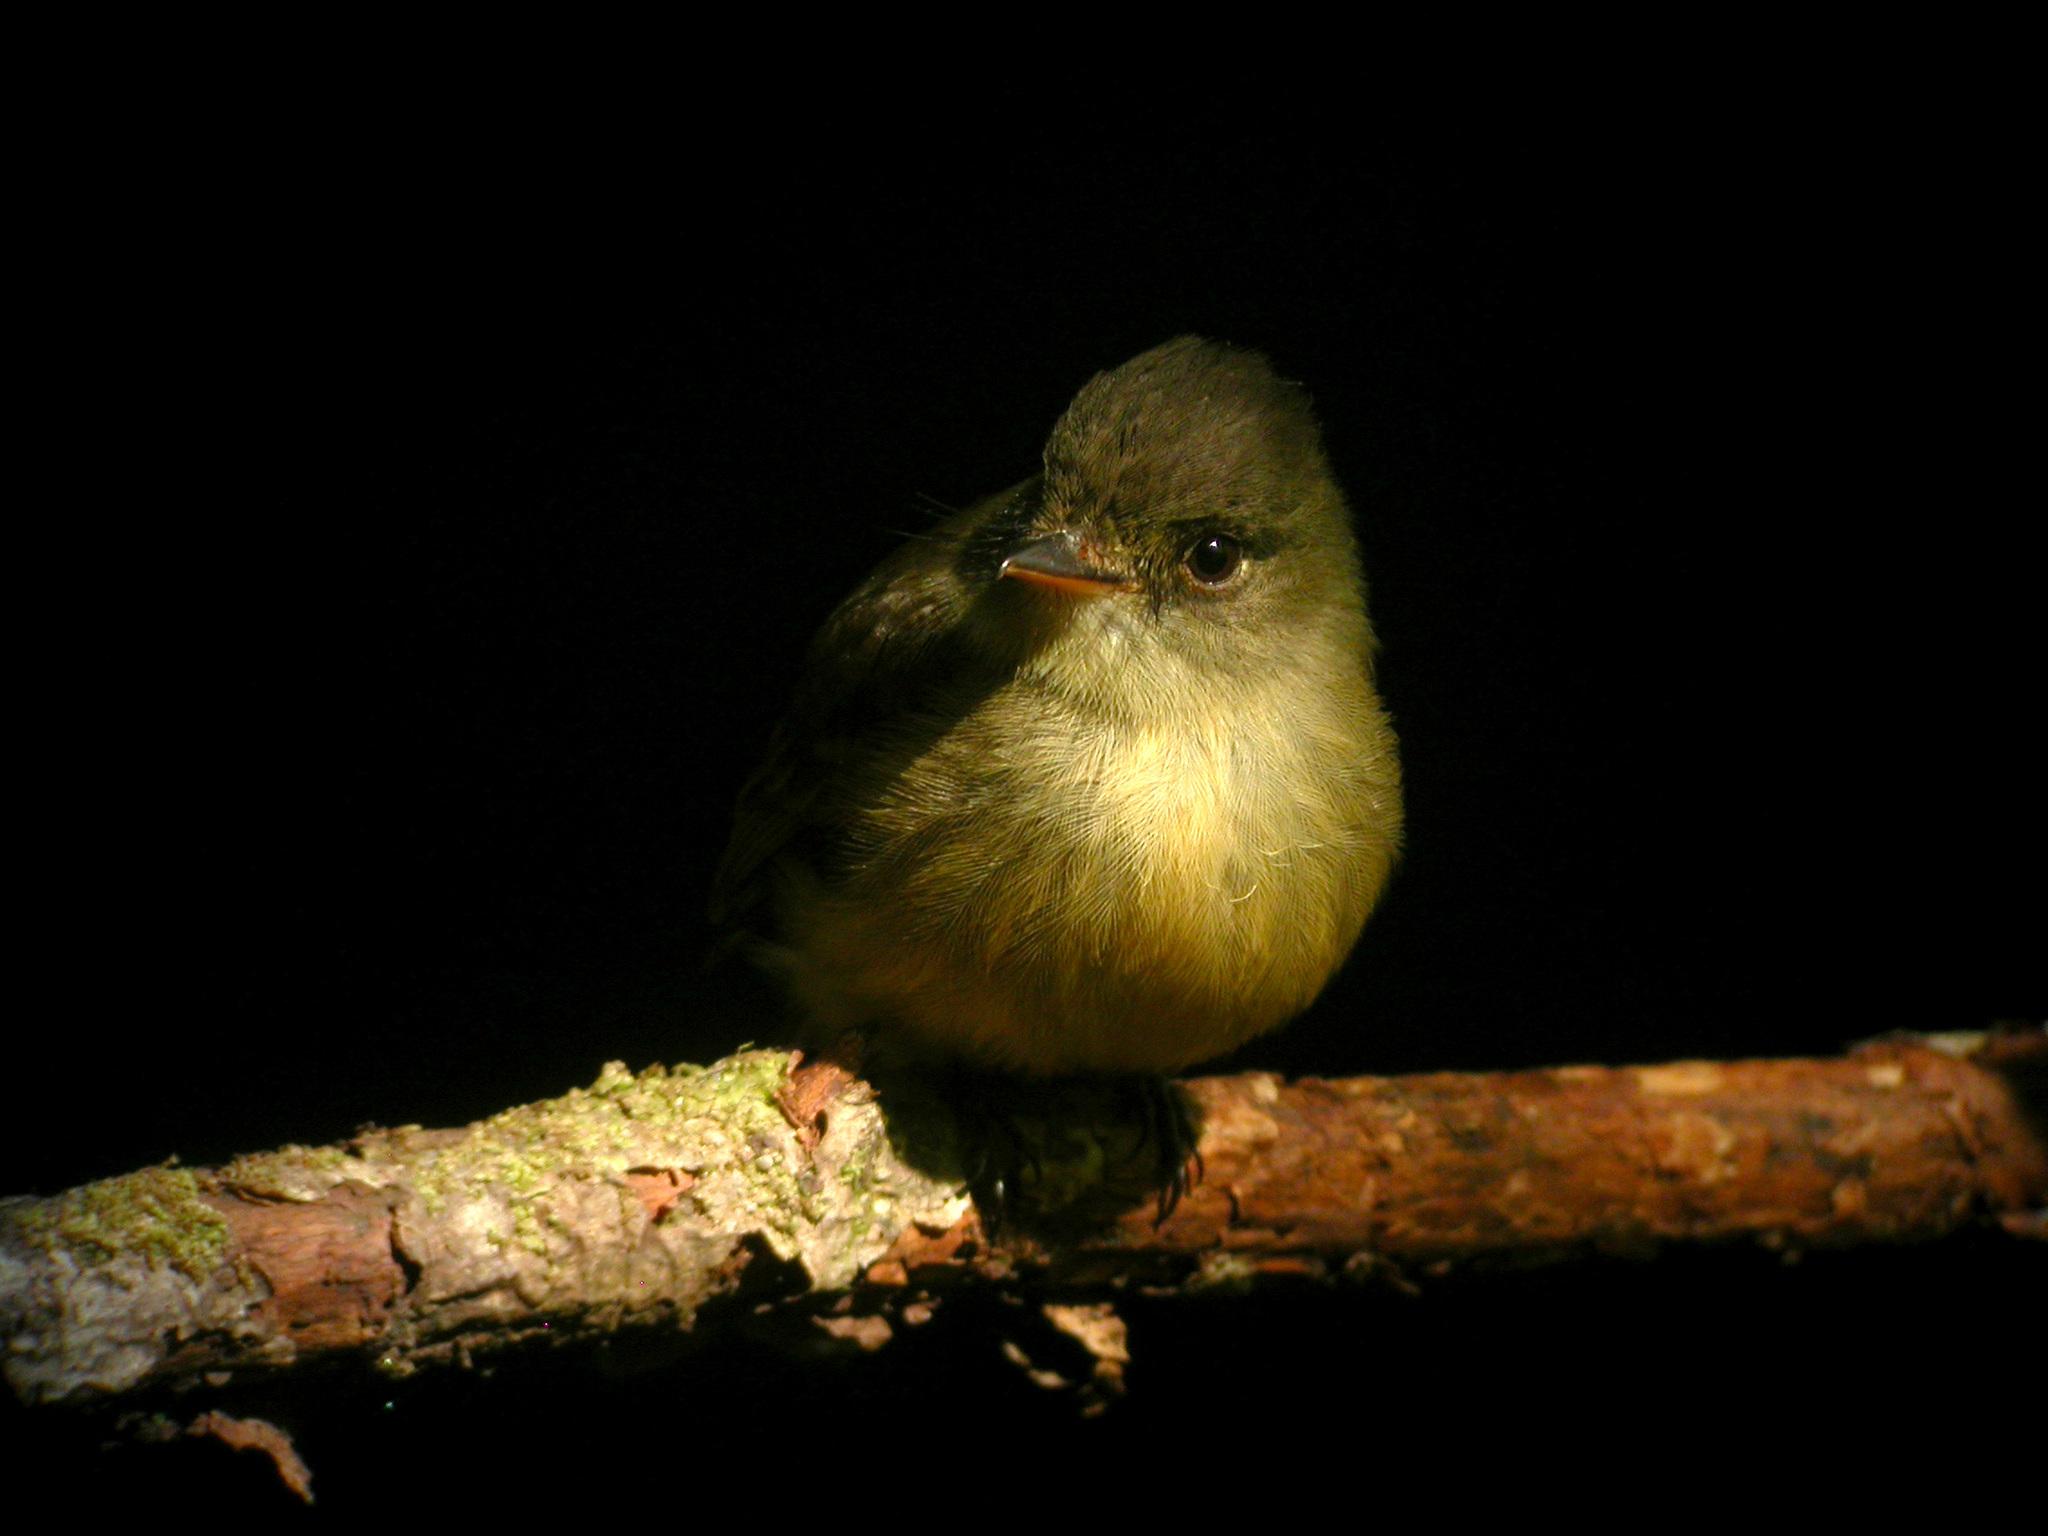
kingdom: Animalia
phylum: Chordata
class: Aves
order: Passeriformes
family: Tyrannidae
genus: Contopus
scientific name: Contopus latirostris
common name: Lesser antillean pewee
